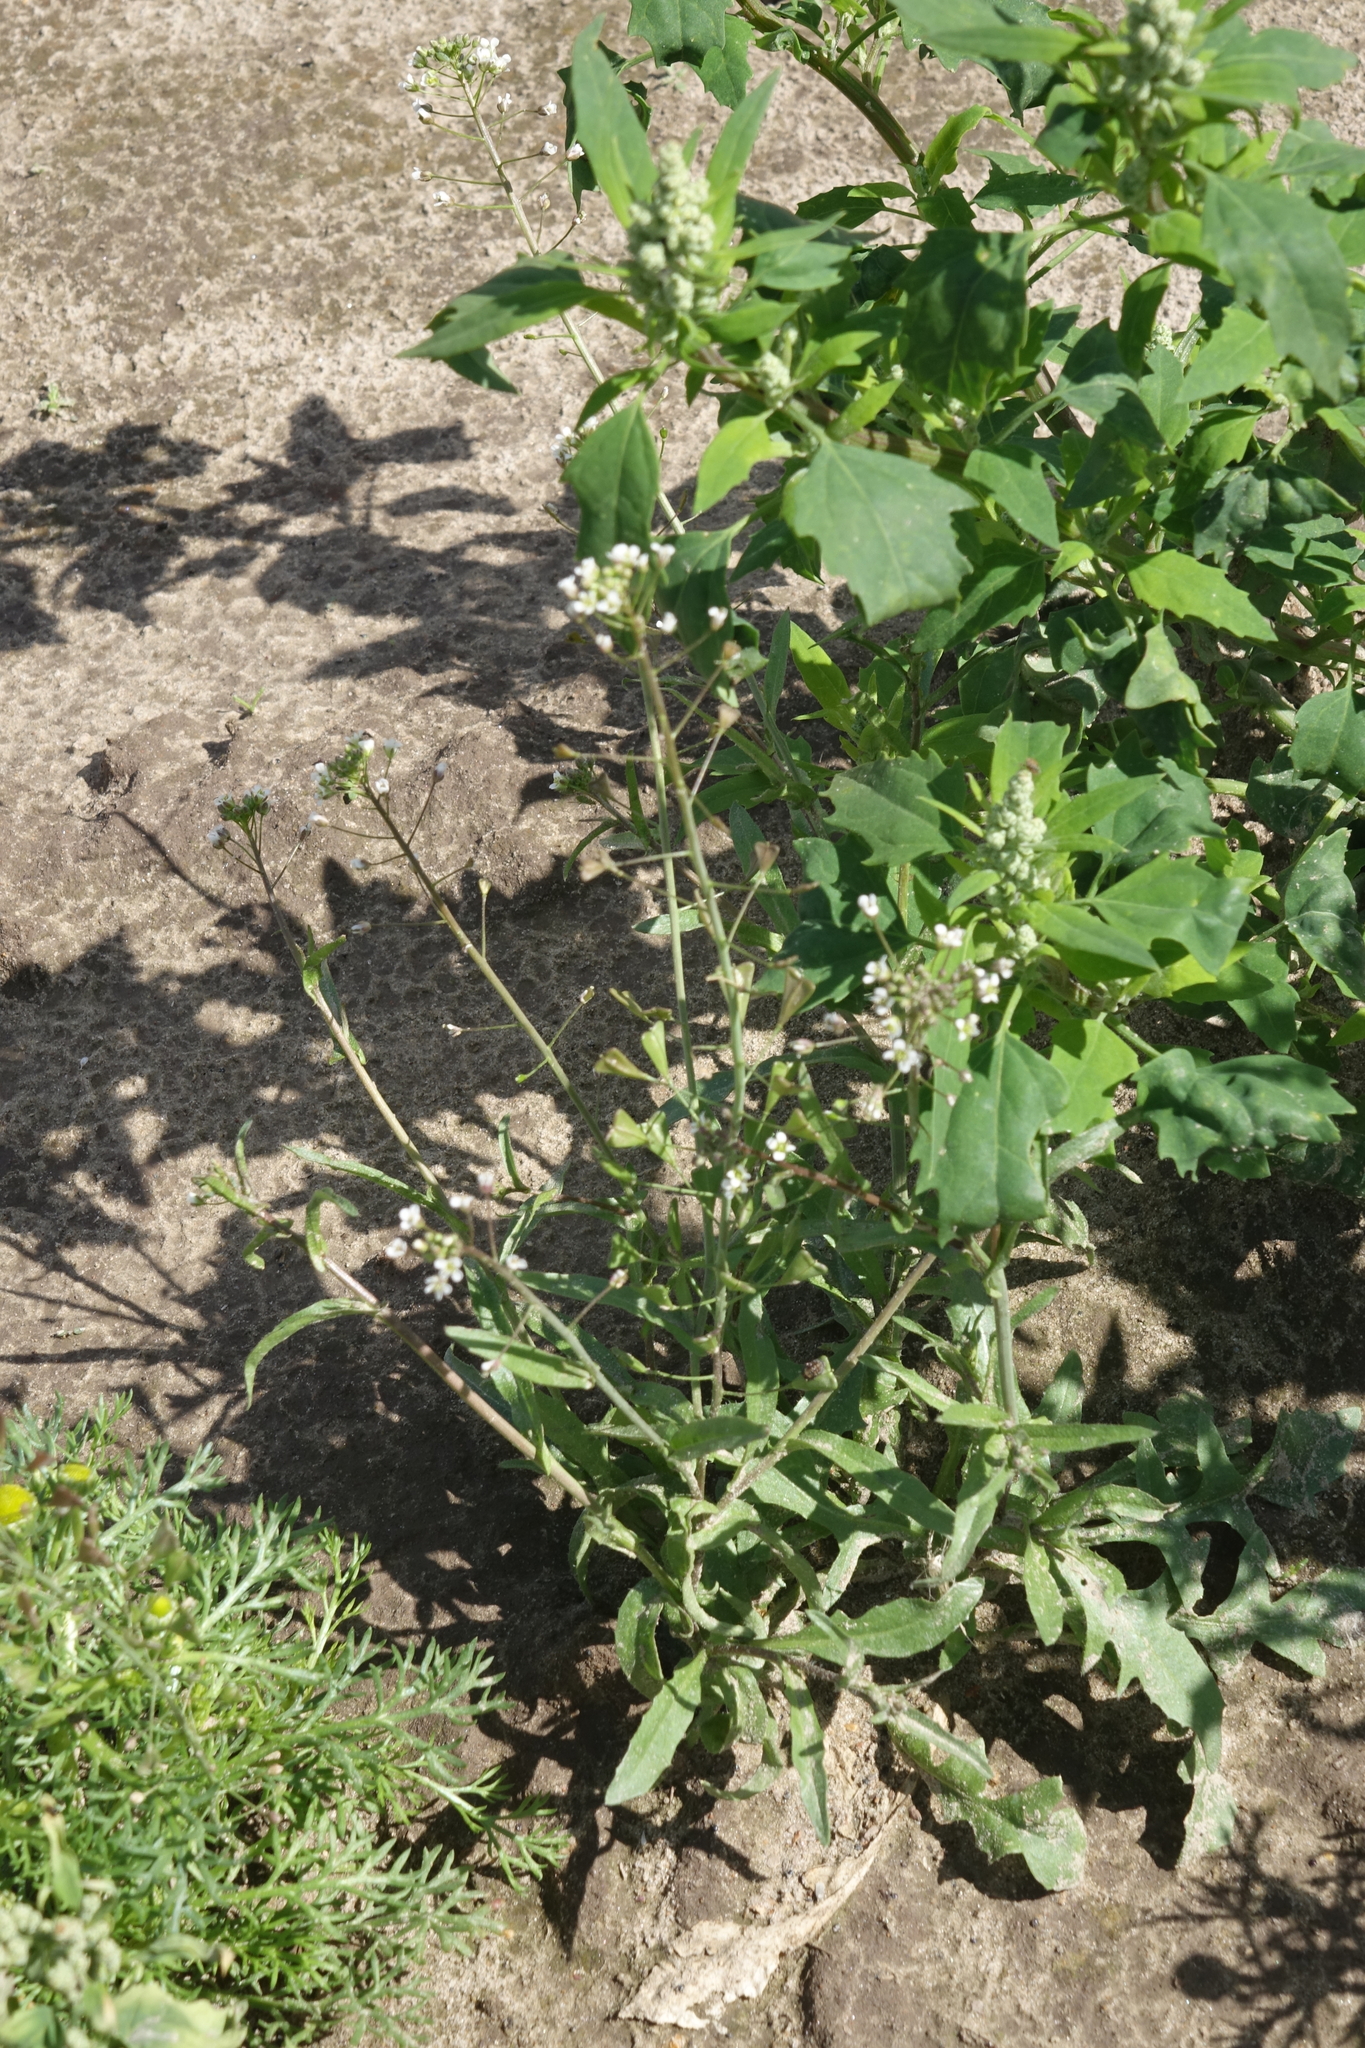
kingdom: Plantae
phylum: Tracheophyta
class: Magnoliopsida
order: Brassicales
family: Brassicaceae
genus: Capsella
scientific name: Capsella bursa-pastoris
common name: Shepherd's purse
